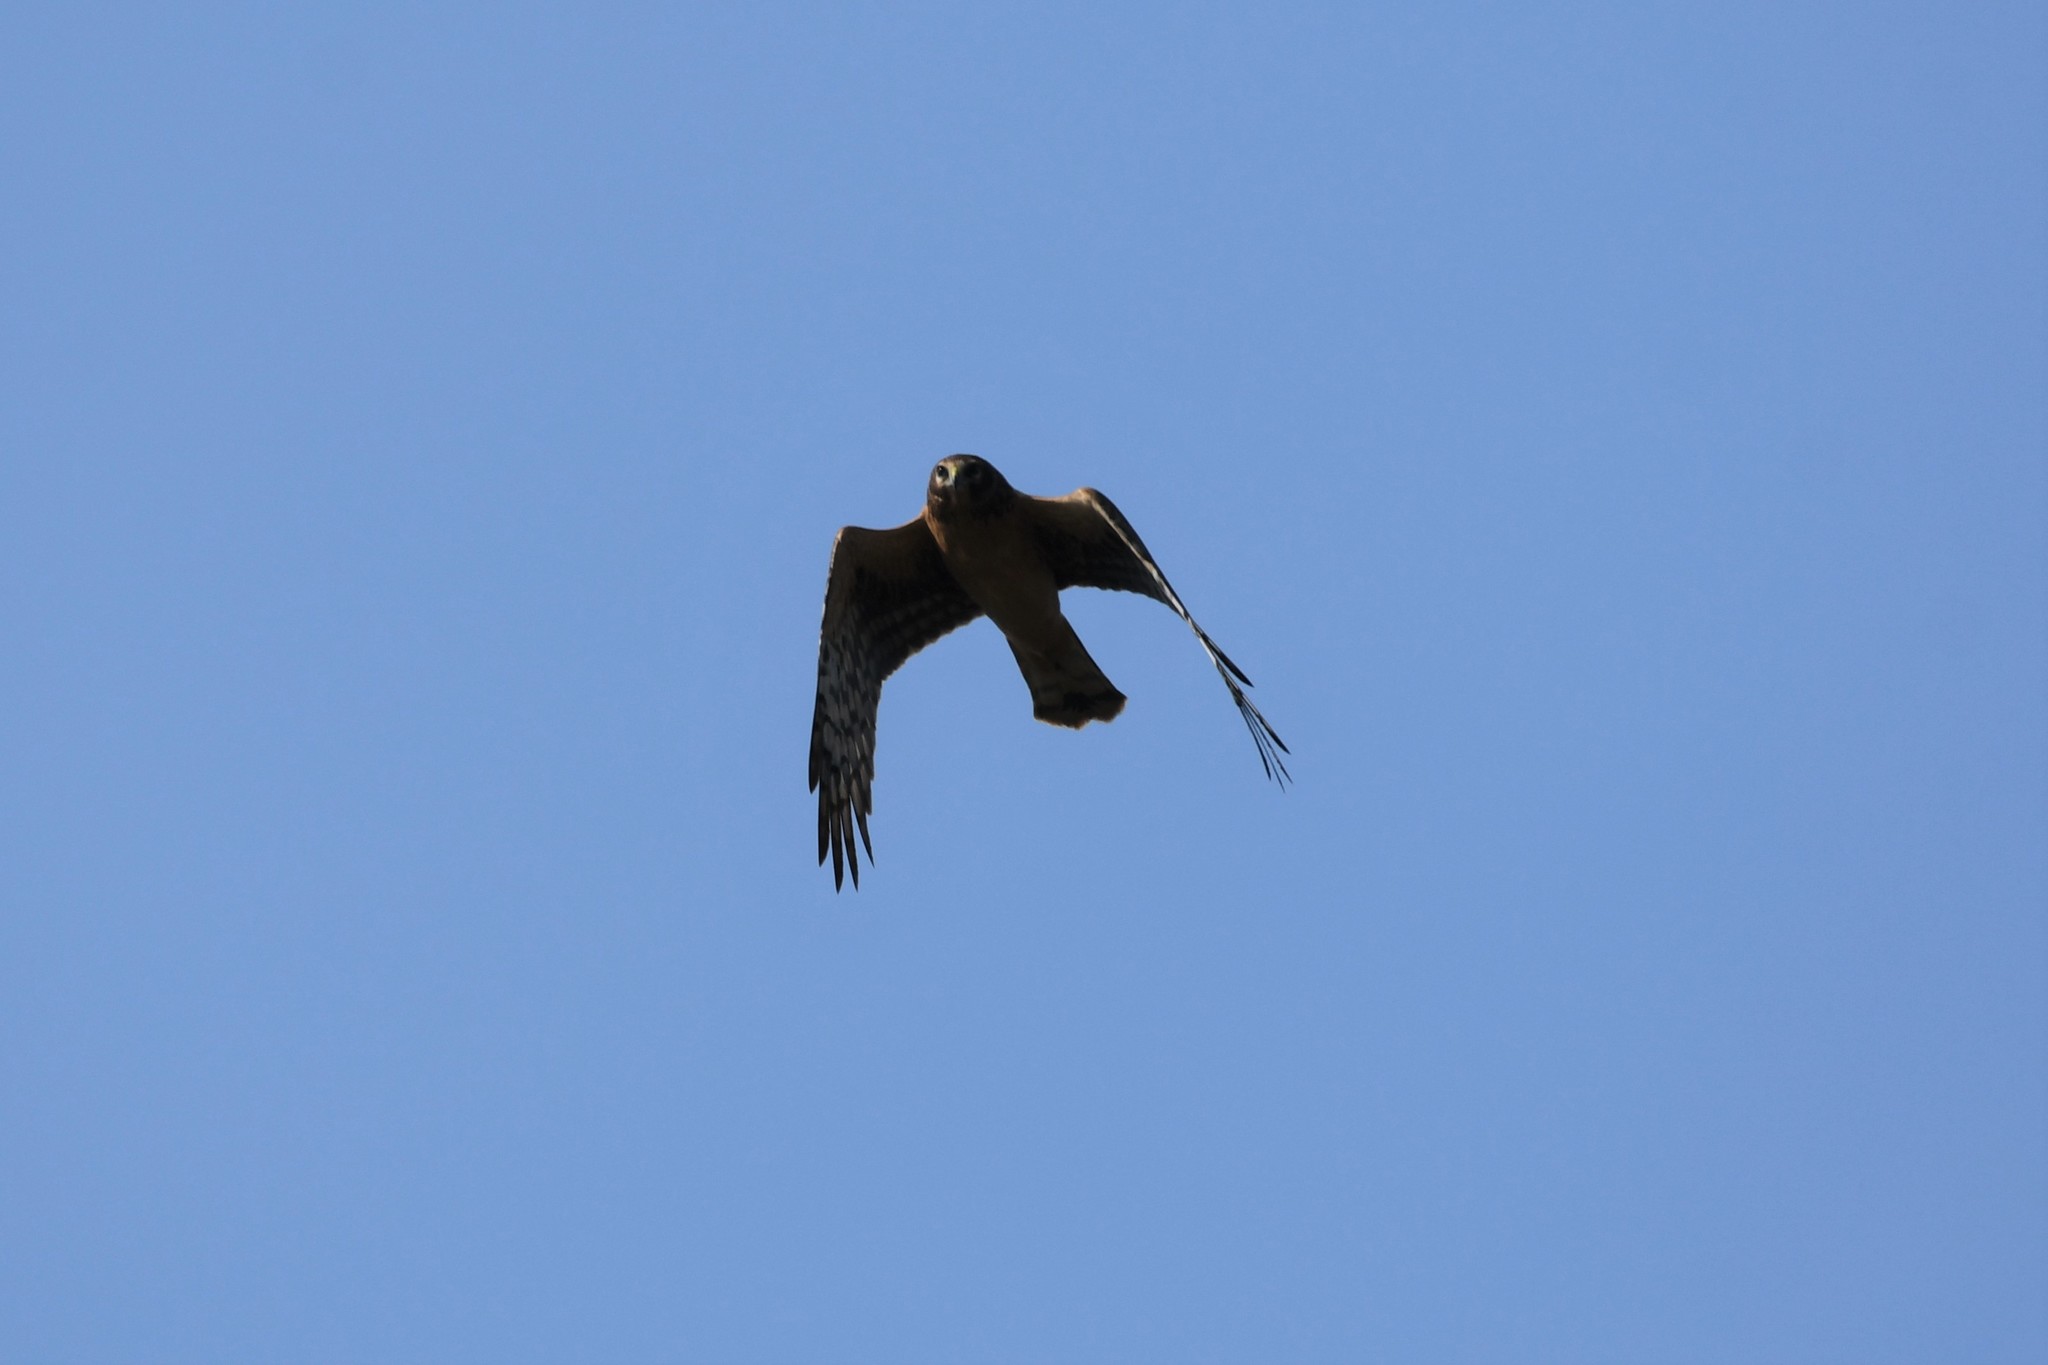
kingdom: Animalia
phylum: Chordata
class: Aves
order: Accipitriformes
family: Accipitridae
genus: Circus
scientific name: Circus cyaneus
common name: Hen harrier
